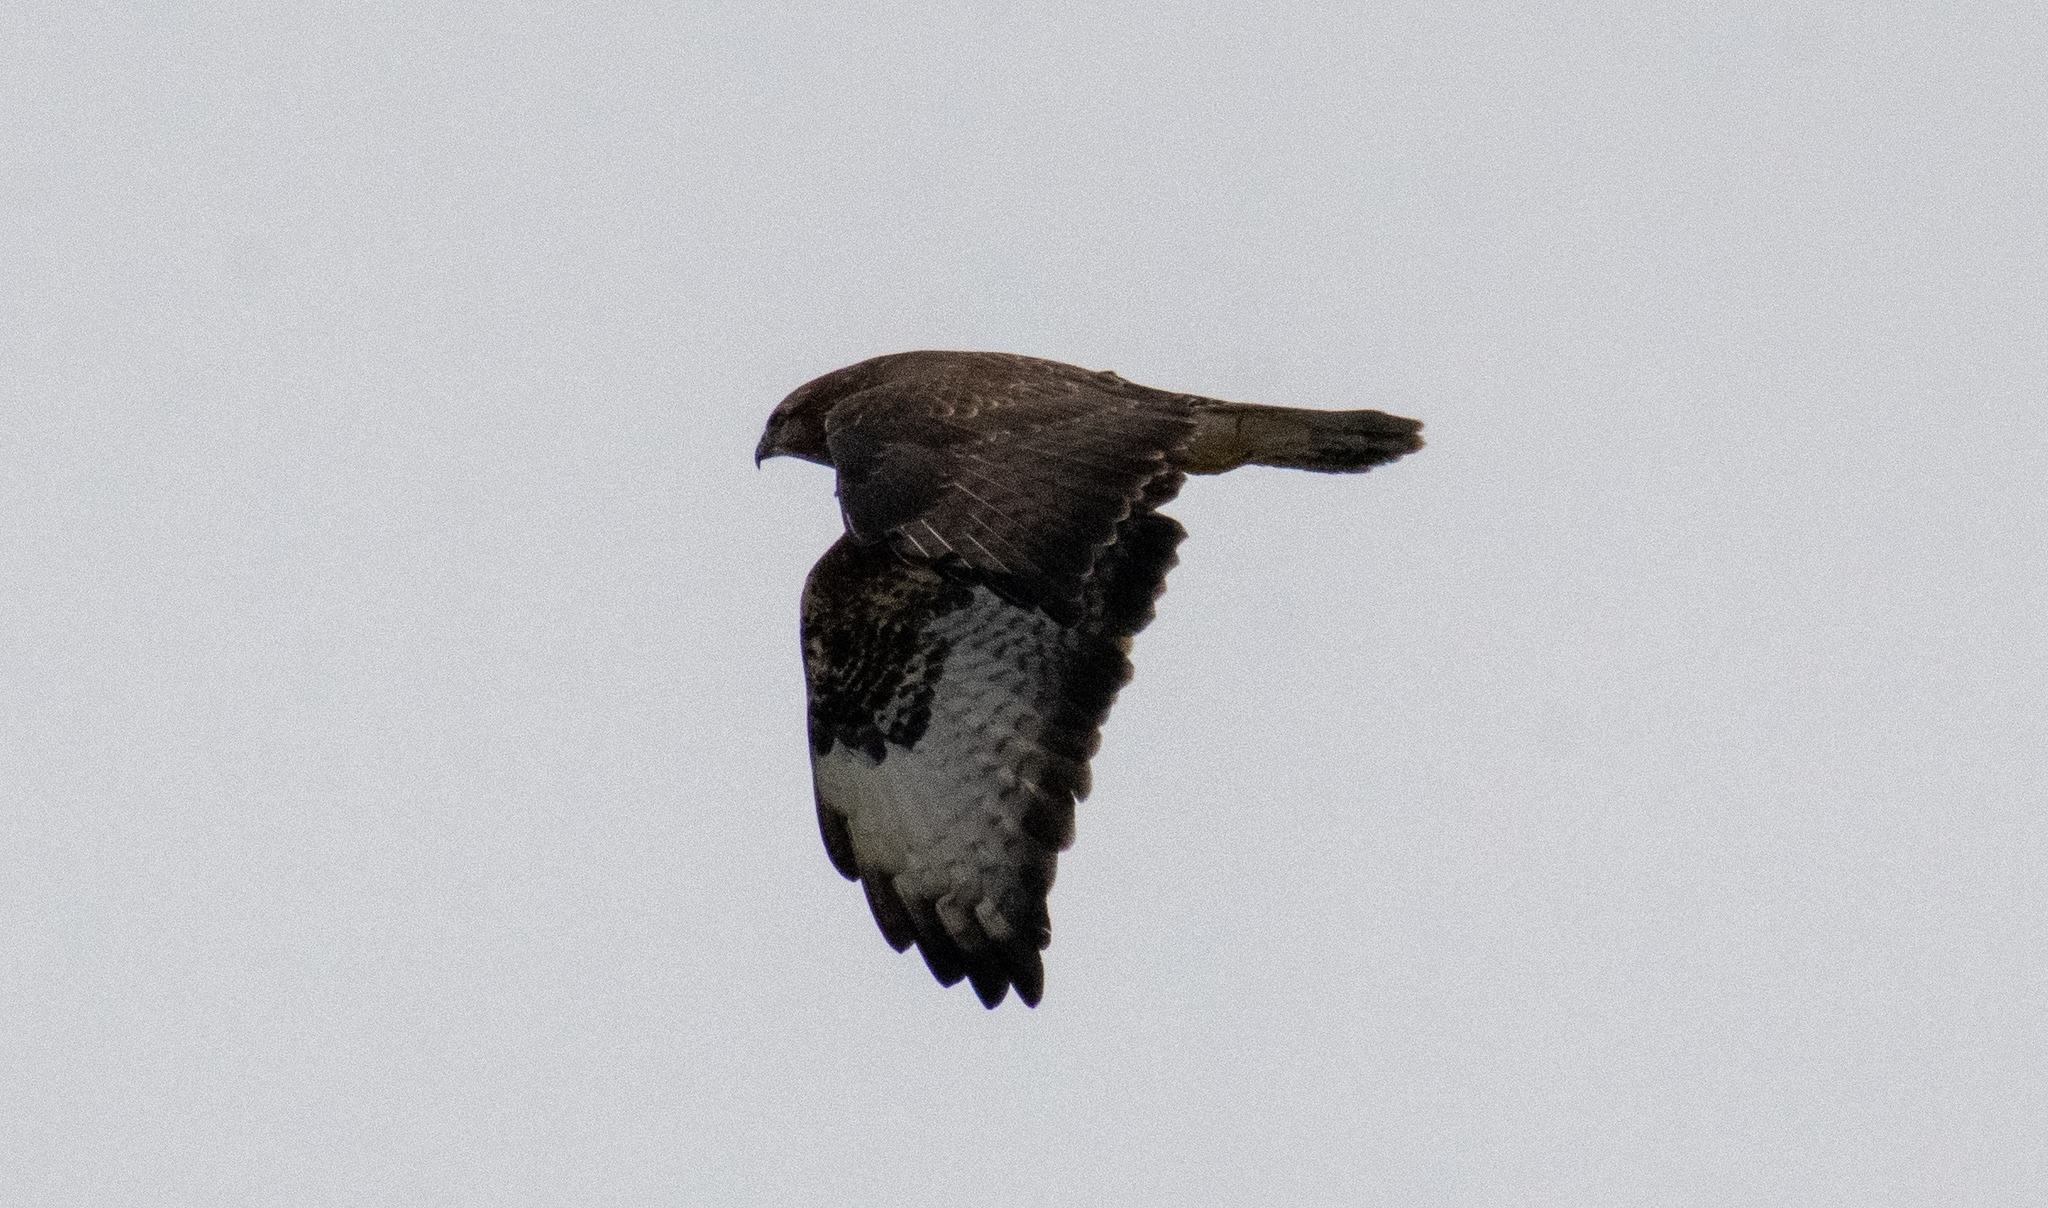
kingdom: Animalia
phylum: Chordata
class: Aves
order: Accipitriformes
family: Accipitridae
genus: Buteo
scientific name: Buteo buteo
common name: Common buzzard
